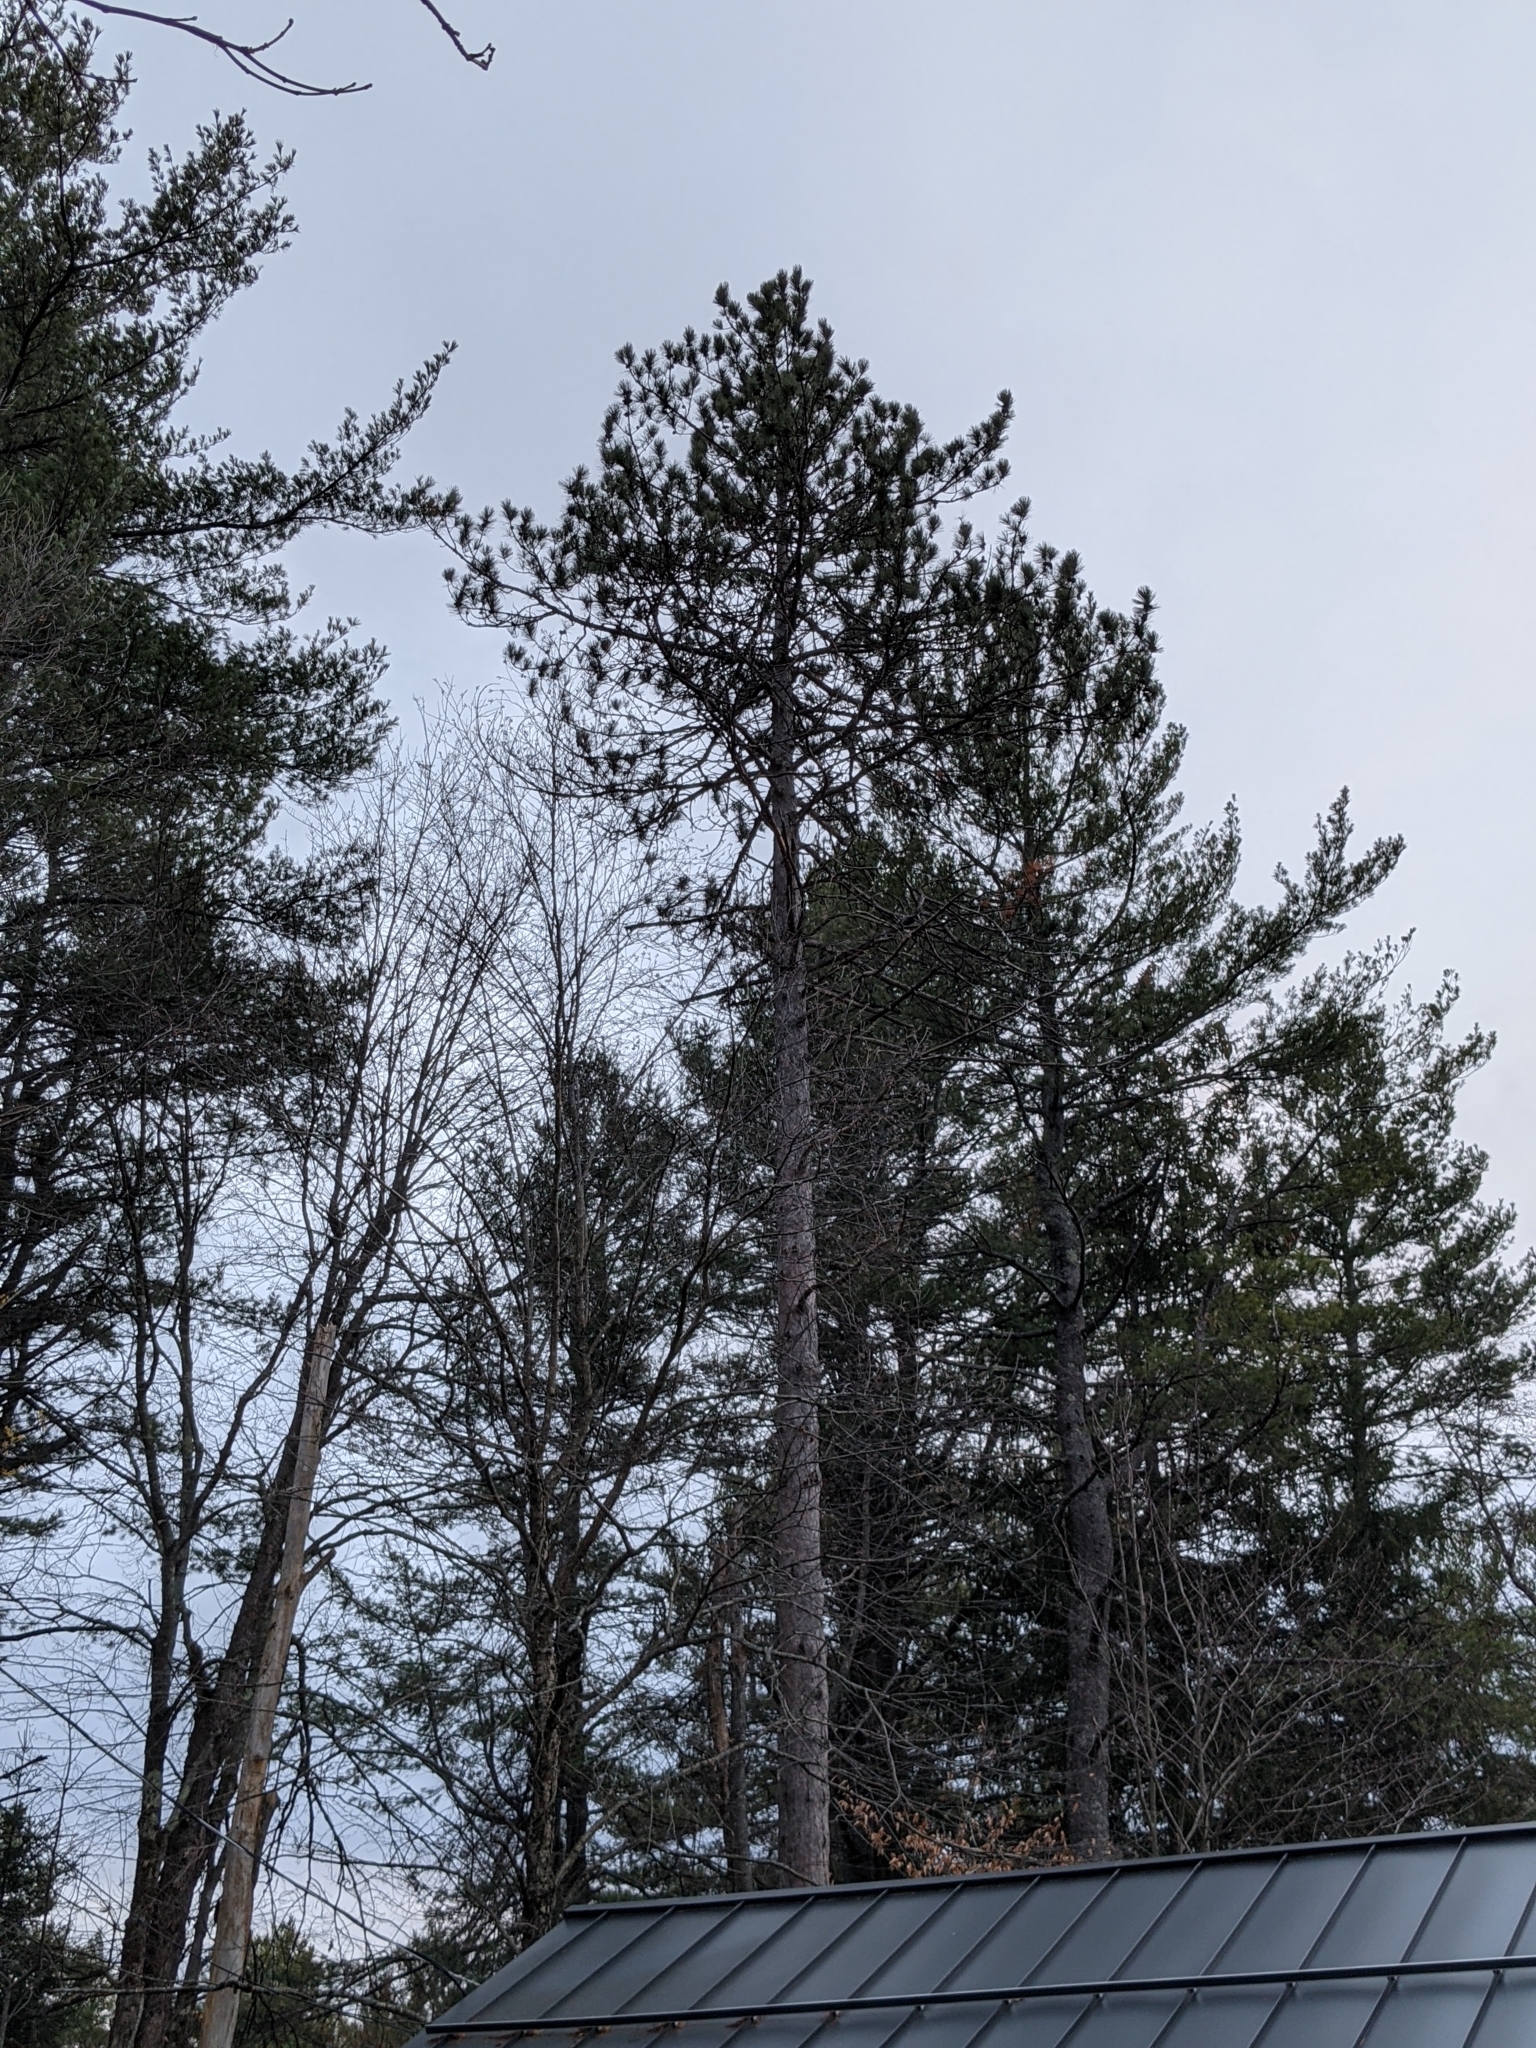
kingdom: Plantae
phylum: Tracheophyta
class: Pinopsida
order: Pinales
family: Pinaceae
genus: Pinus
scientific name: Pinus resinosa
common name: Norway pine
